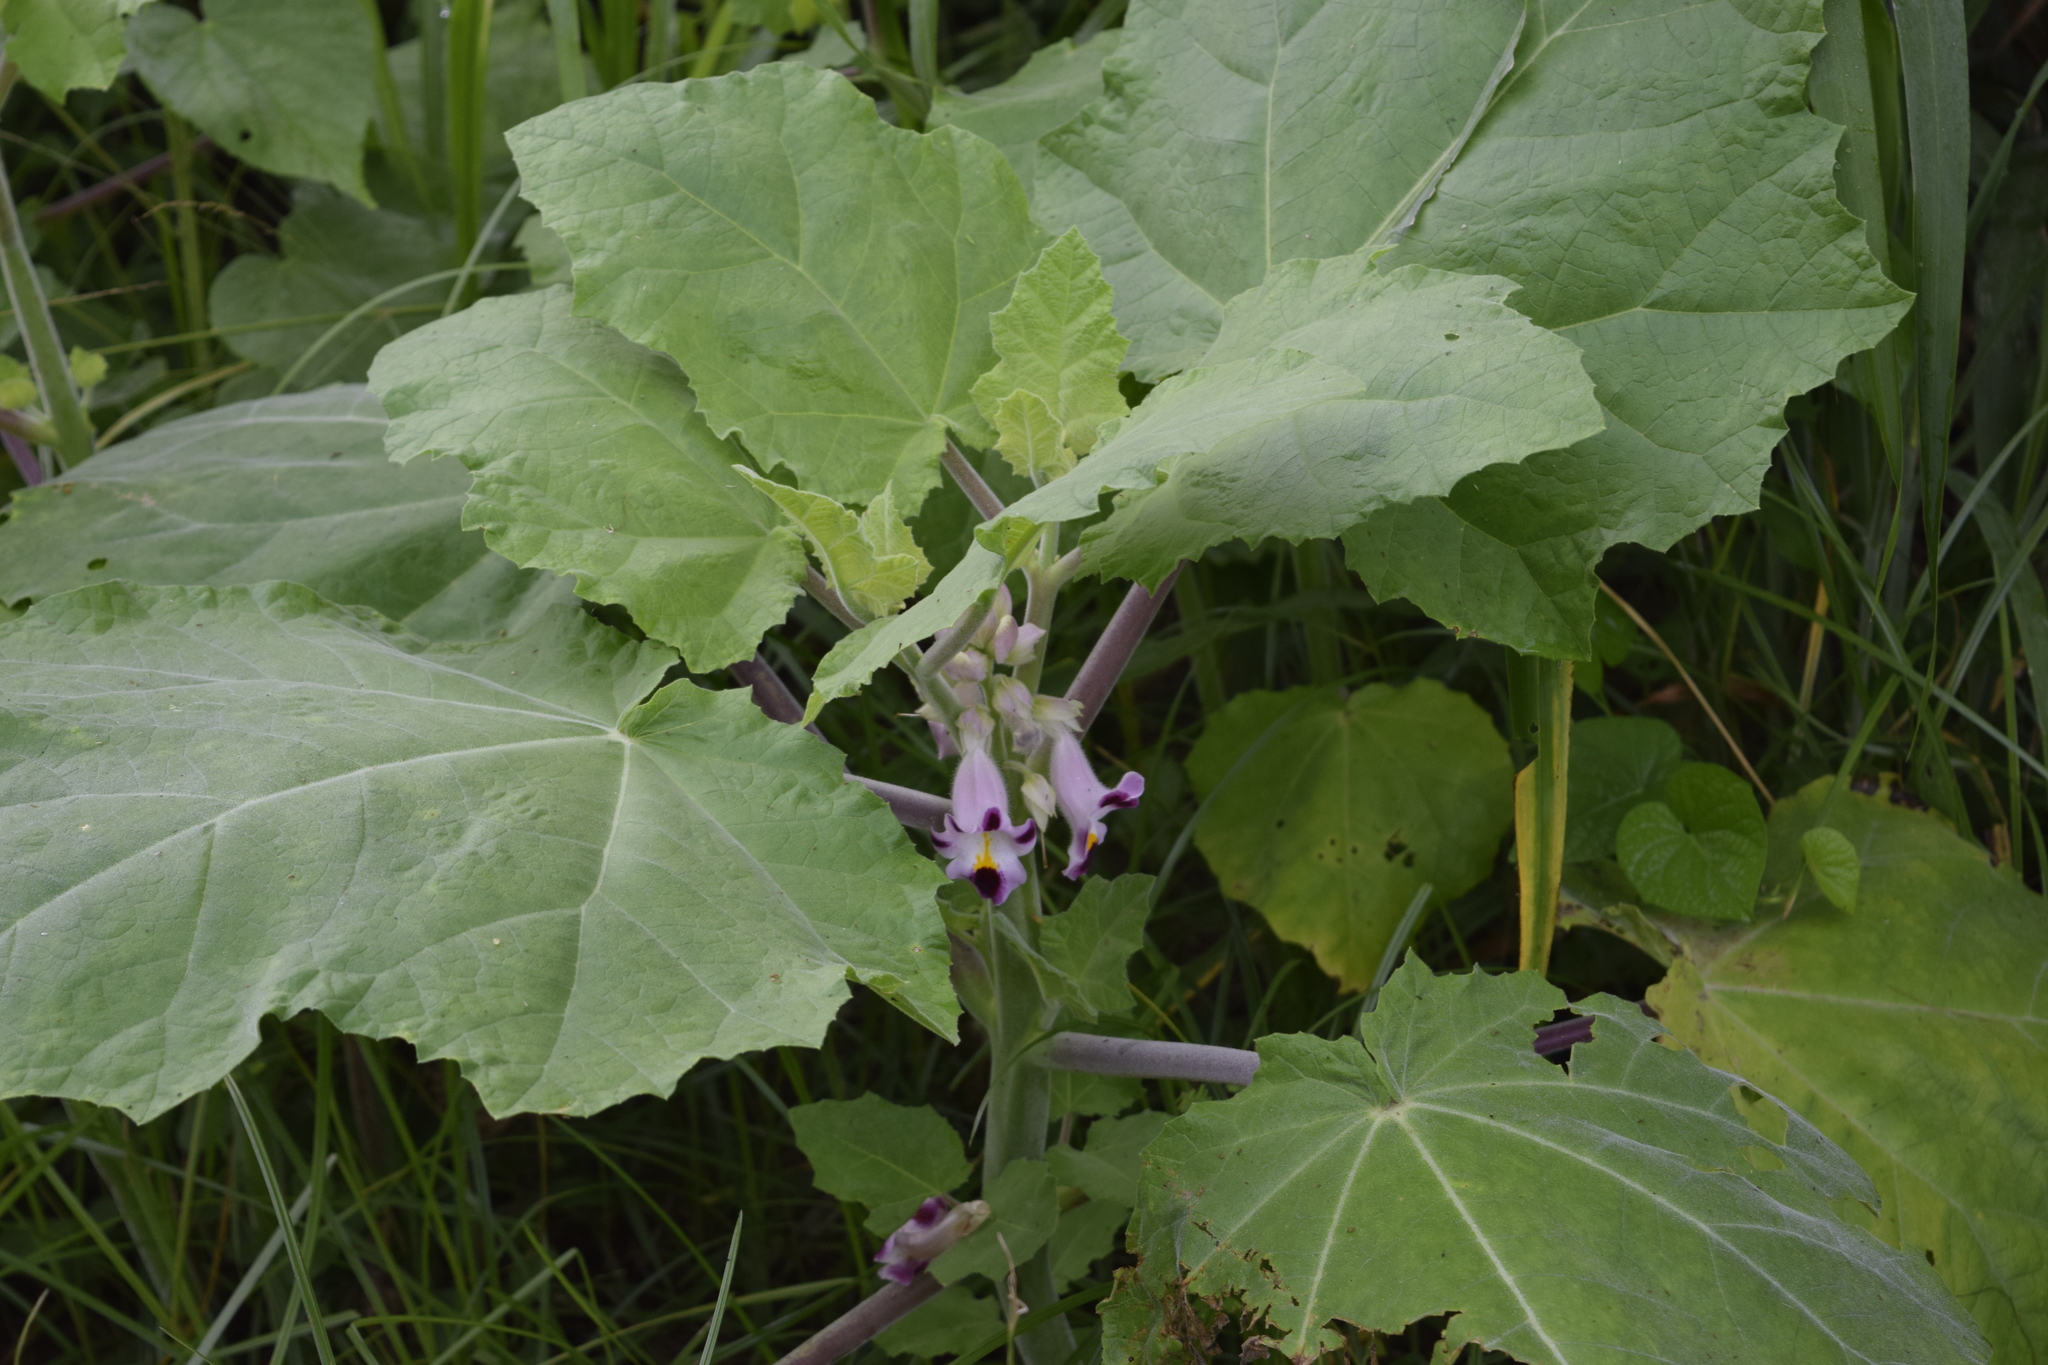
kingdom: Plantae
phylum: Tracheophyta
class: Magnoliopsida
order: Lamiales
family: Martyniaceae
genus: Martynia
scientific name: Martynia annua
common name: Tiger's-claw
